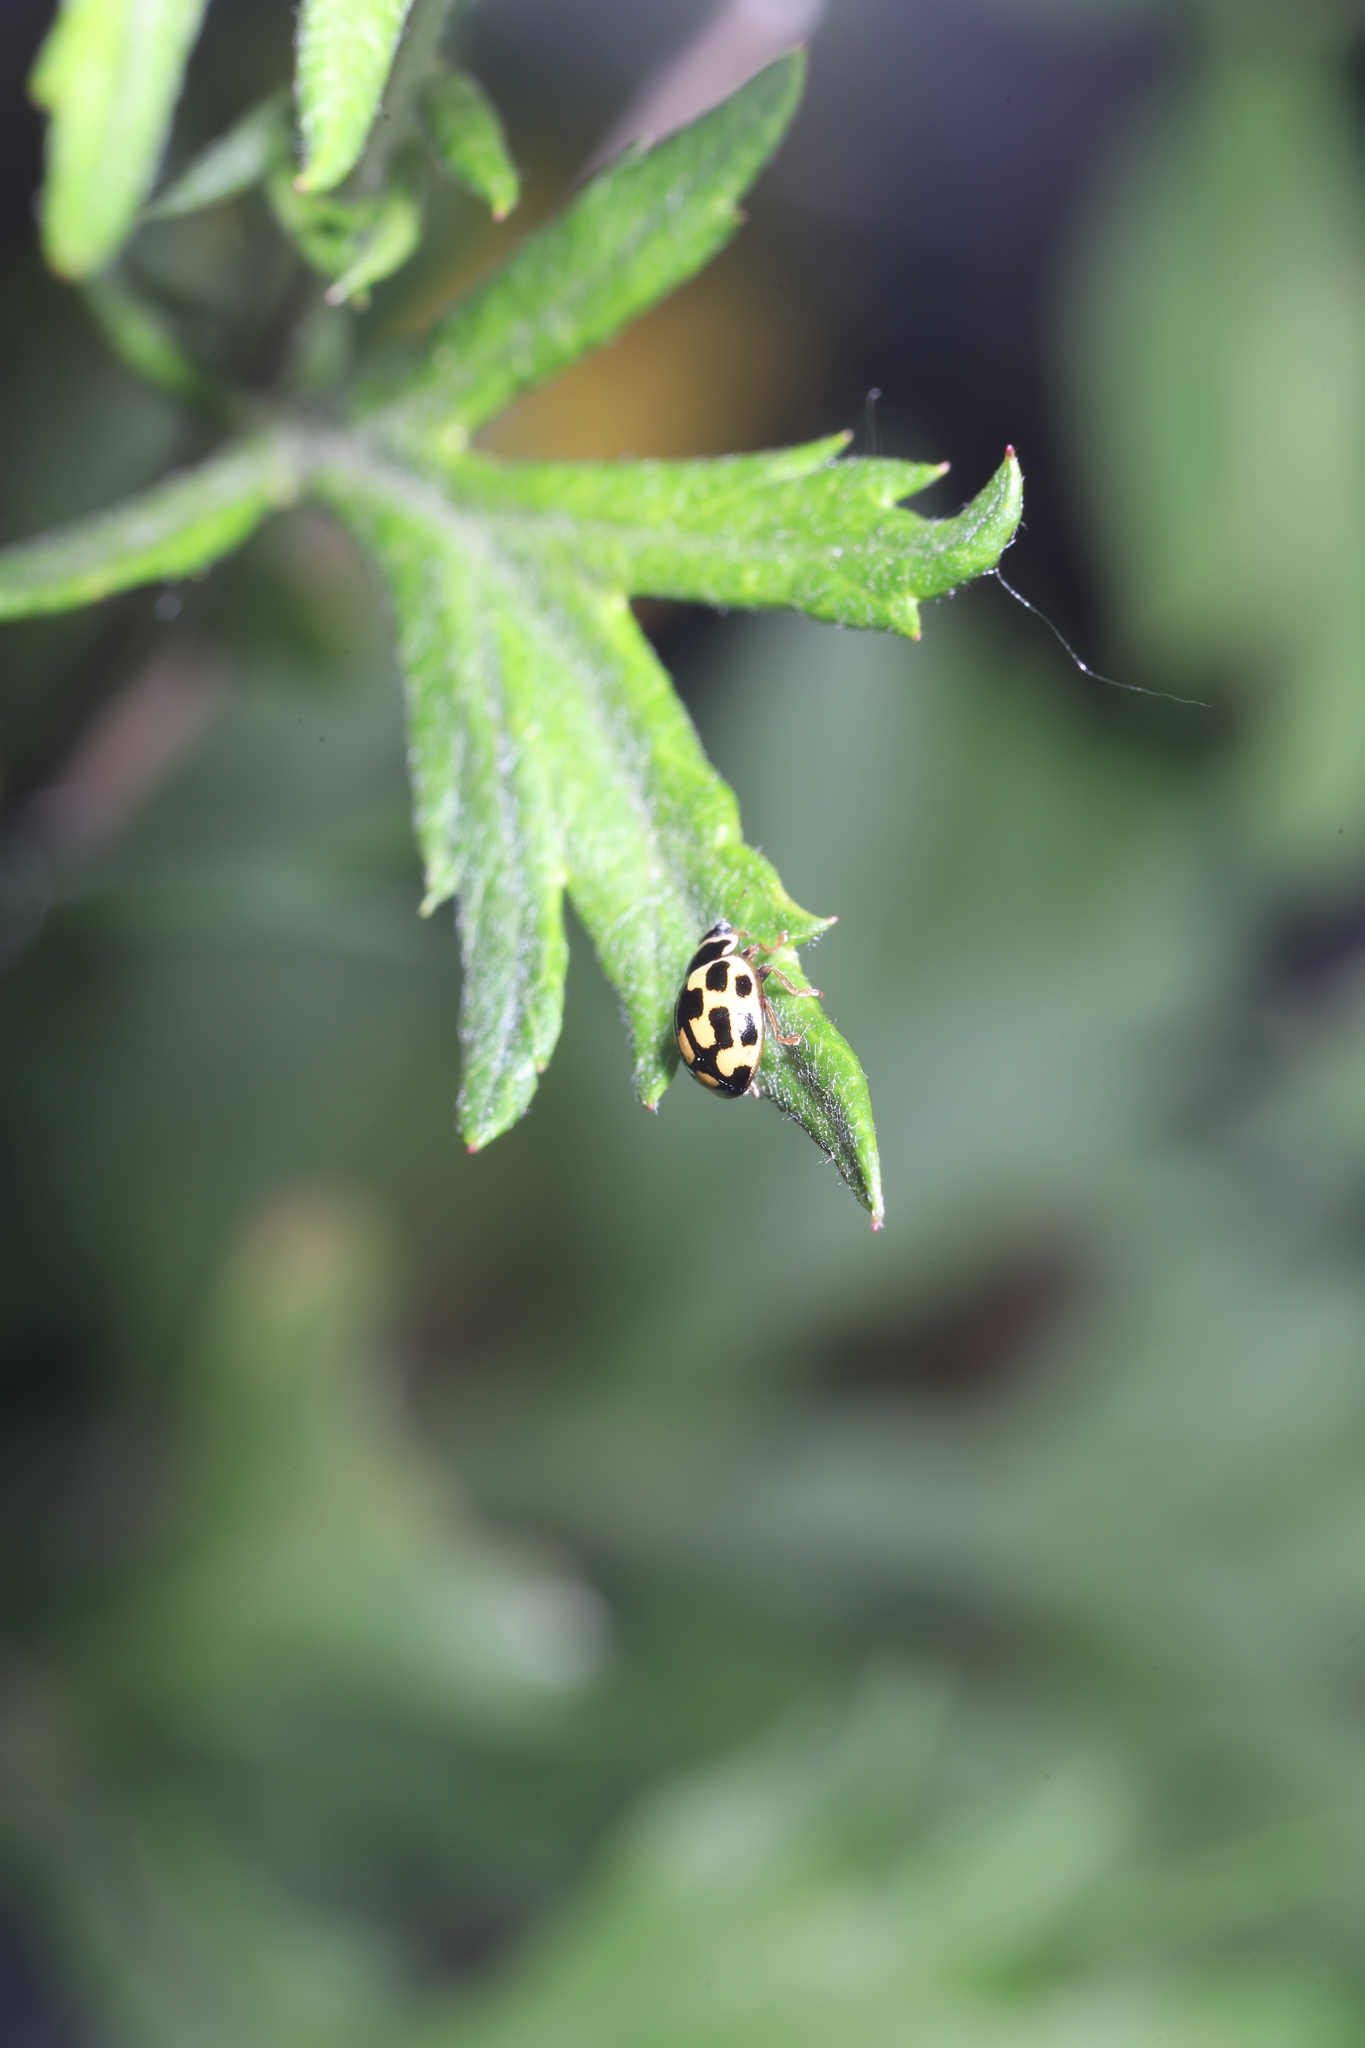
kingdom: Animalia
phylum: Arthropoda
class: Insecta
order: Coleoptera
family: Coccinellidae
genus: Propylaea
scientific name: Propylaea quatuordecimpunctata
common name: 14-spotted ladybird beetle
